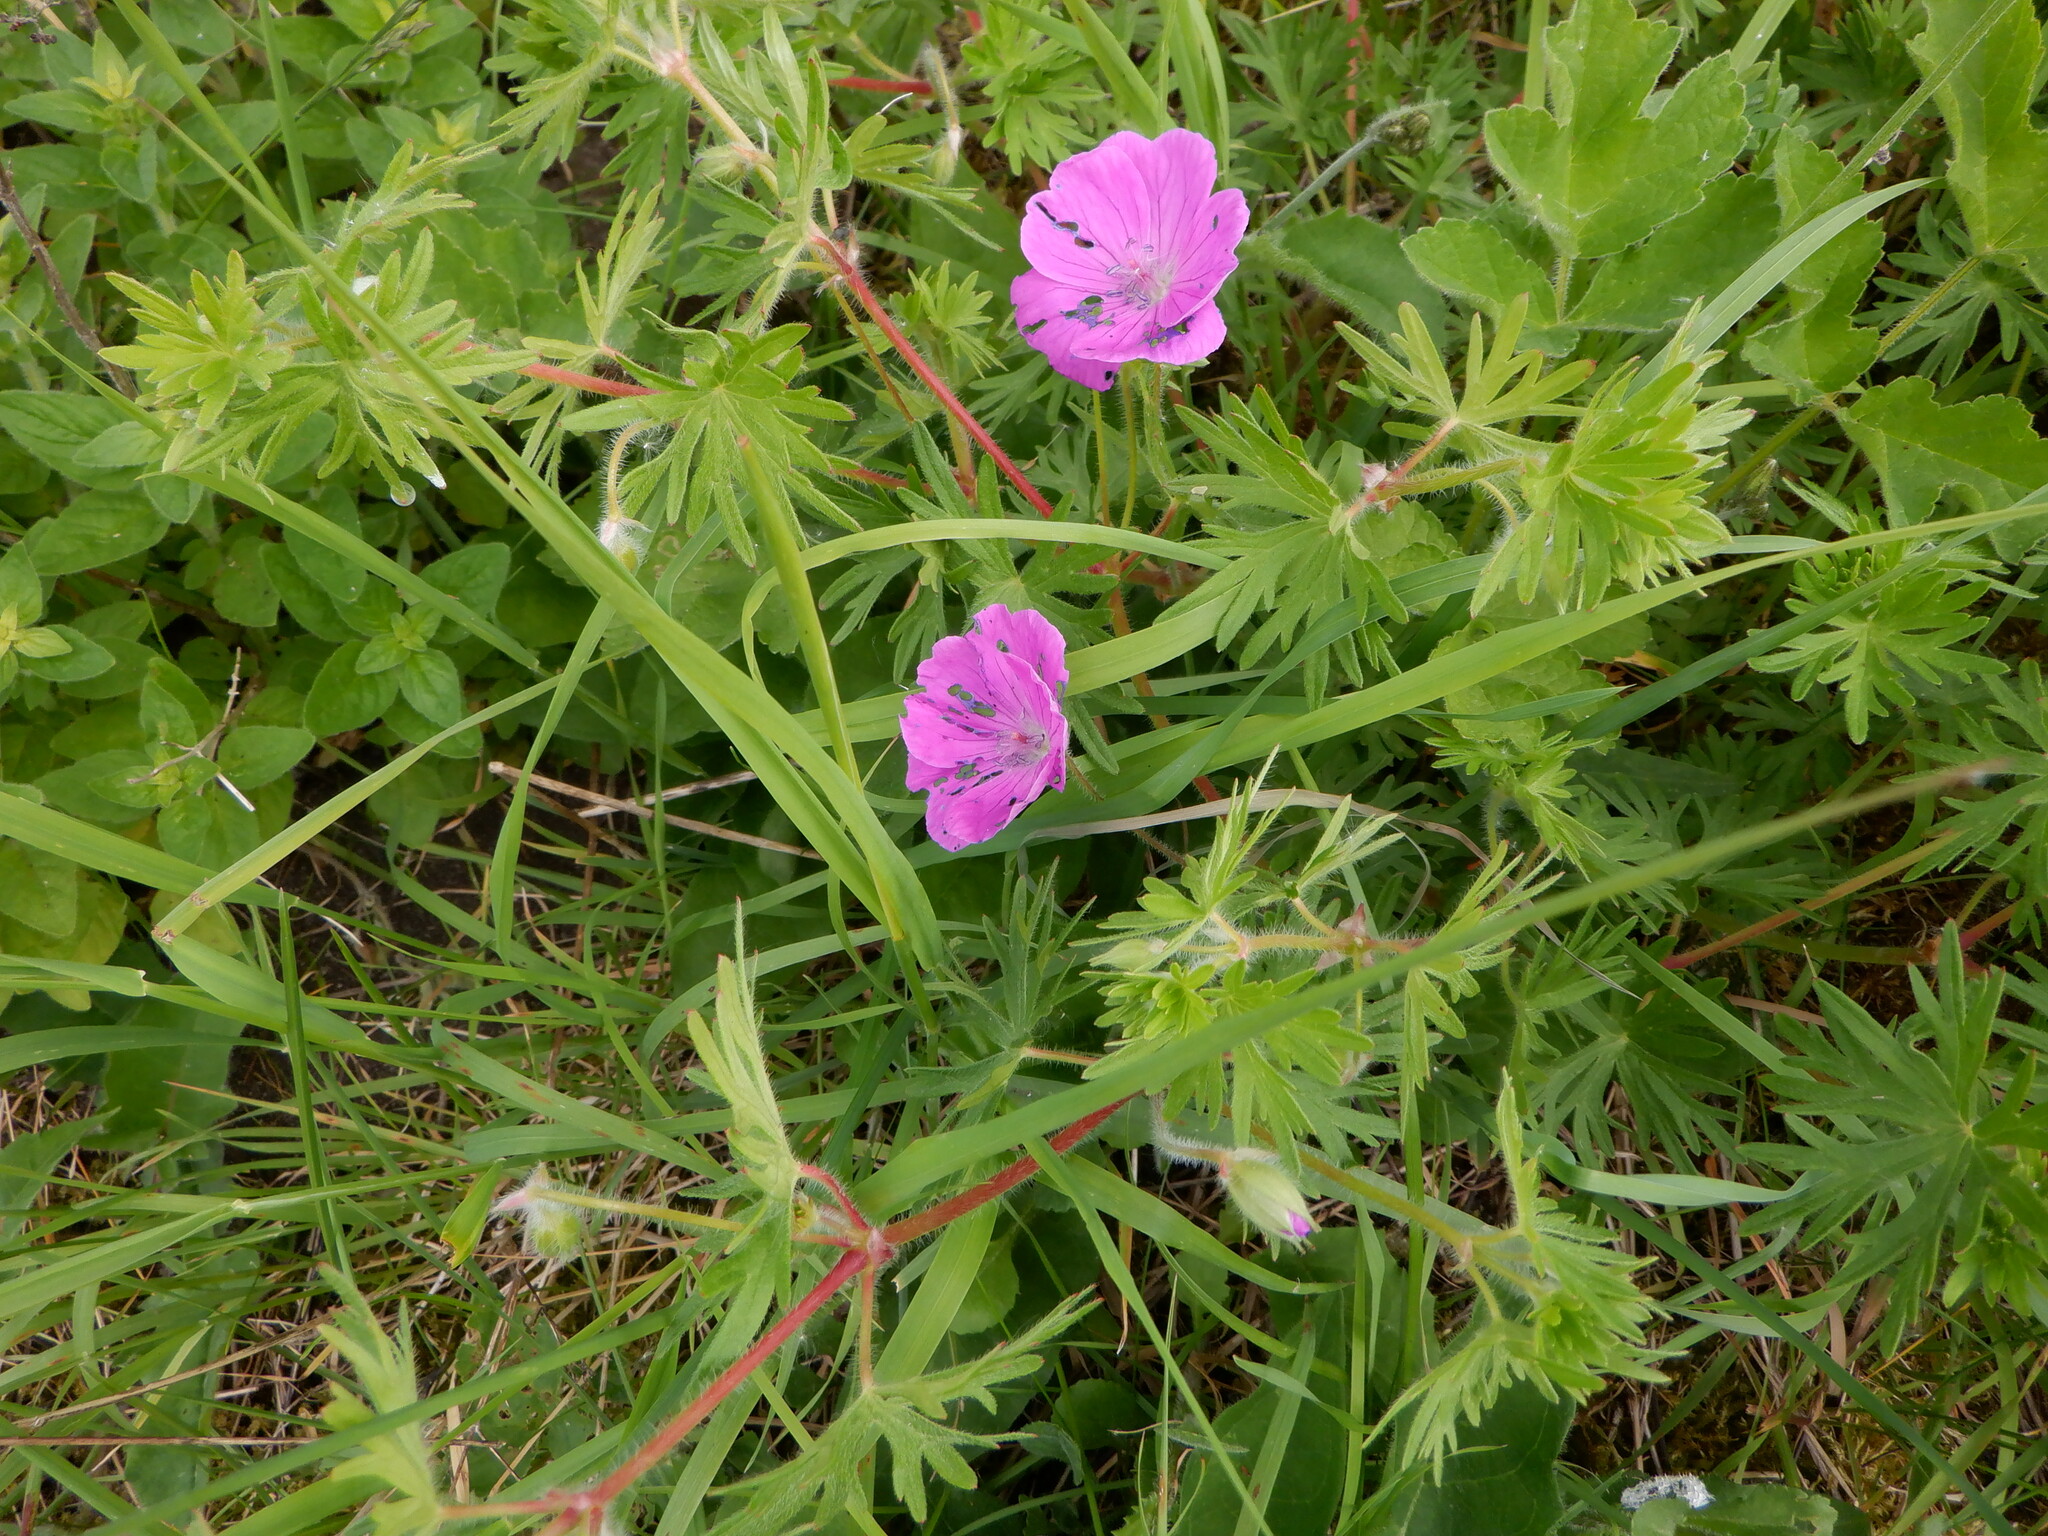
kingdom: Plantae
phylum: Tracheophyta
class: Magnoliopsida
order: Geraniales
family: Geraniaceae
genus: Geranium
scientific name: Geranium sanguineum
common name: Bloody crane's-bill
